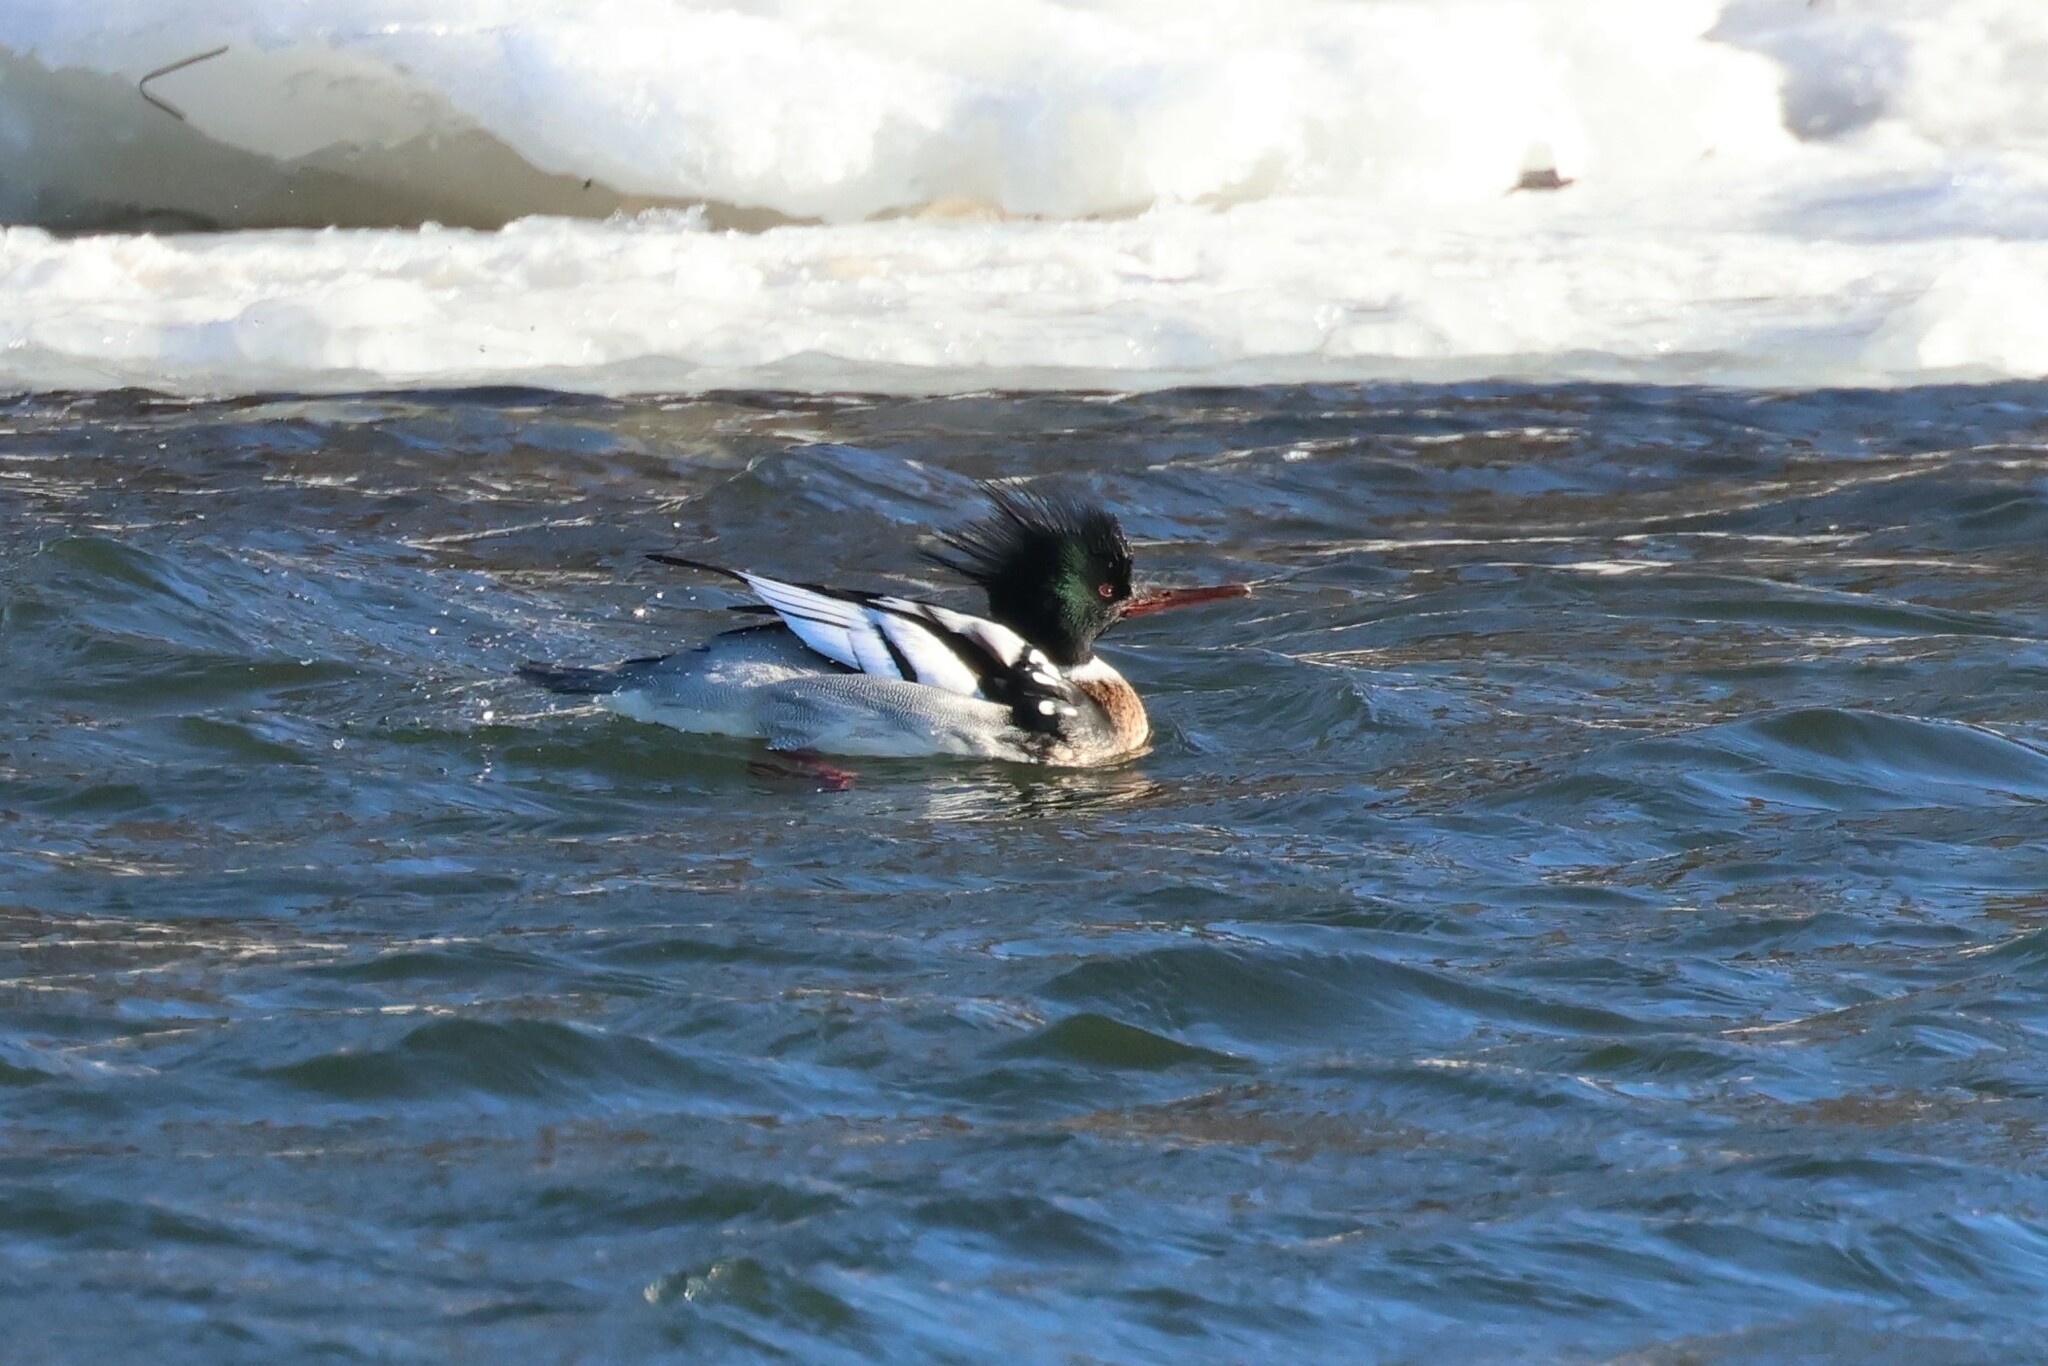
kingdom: Animalia
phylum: Chordata
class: Aves
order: Anseriformes
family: Anatidae
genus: Mergus
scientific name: Mergus serrator
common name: Red-breasted merganser
